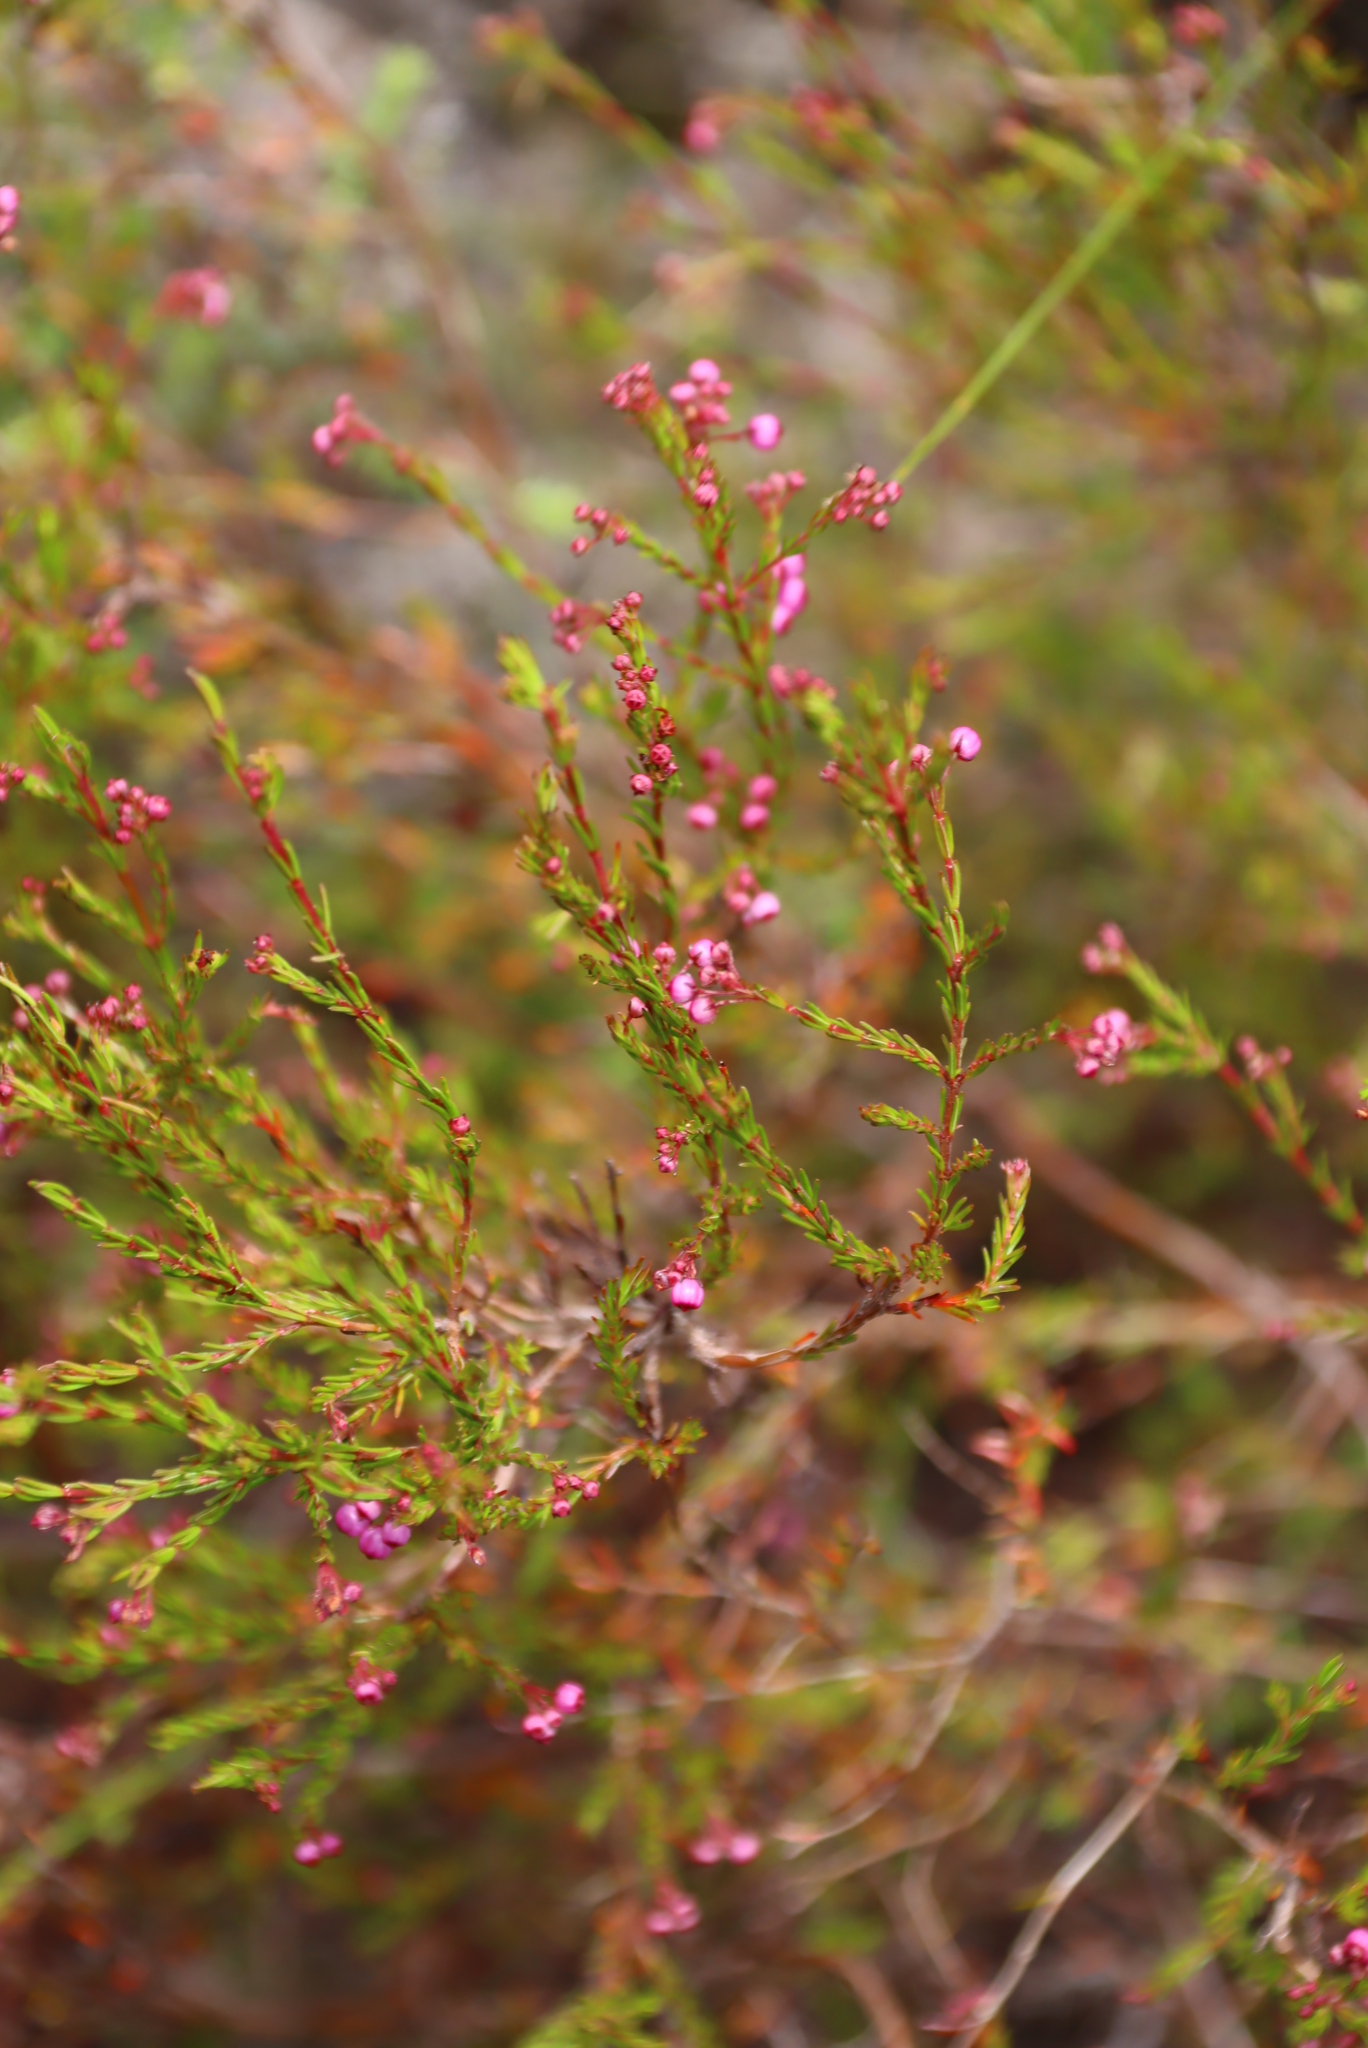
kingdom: Plantae
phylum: Tracheophyta
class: Magnoliopsida
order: Ericales
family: Ericaceae
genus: Erica
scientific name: Erica multumbellifera
